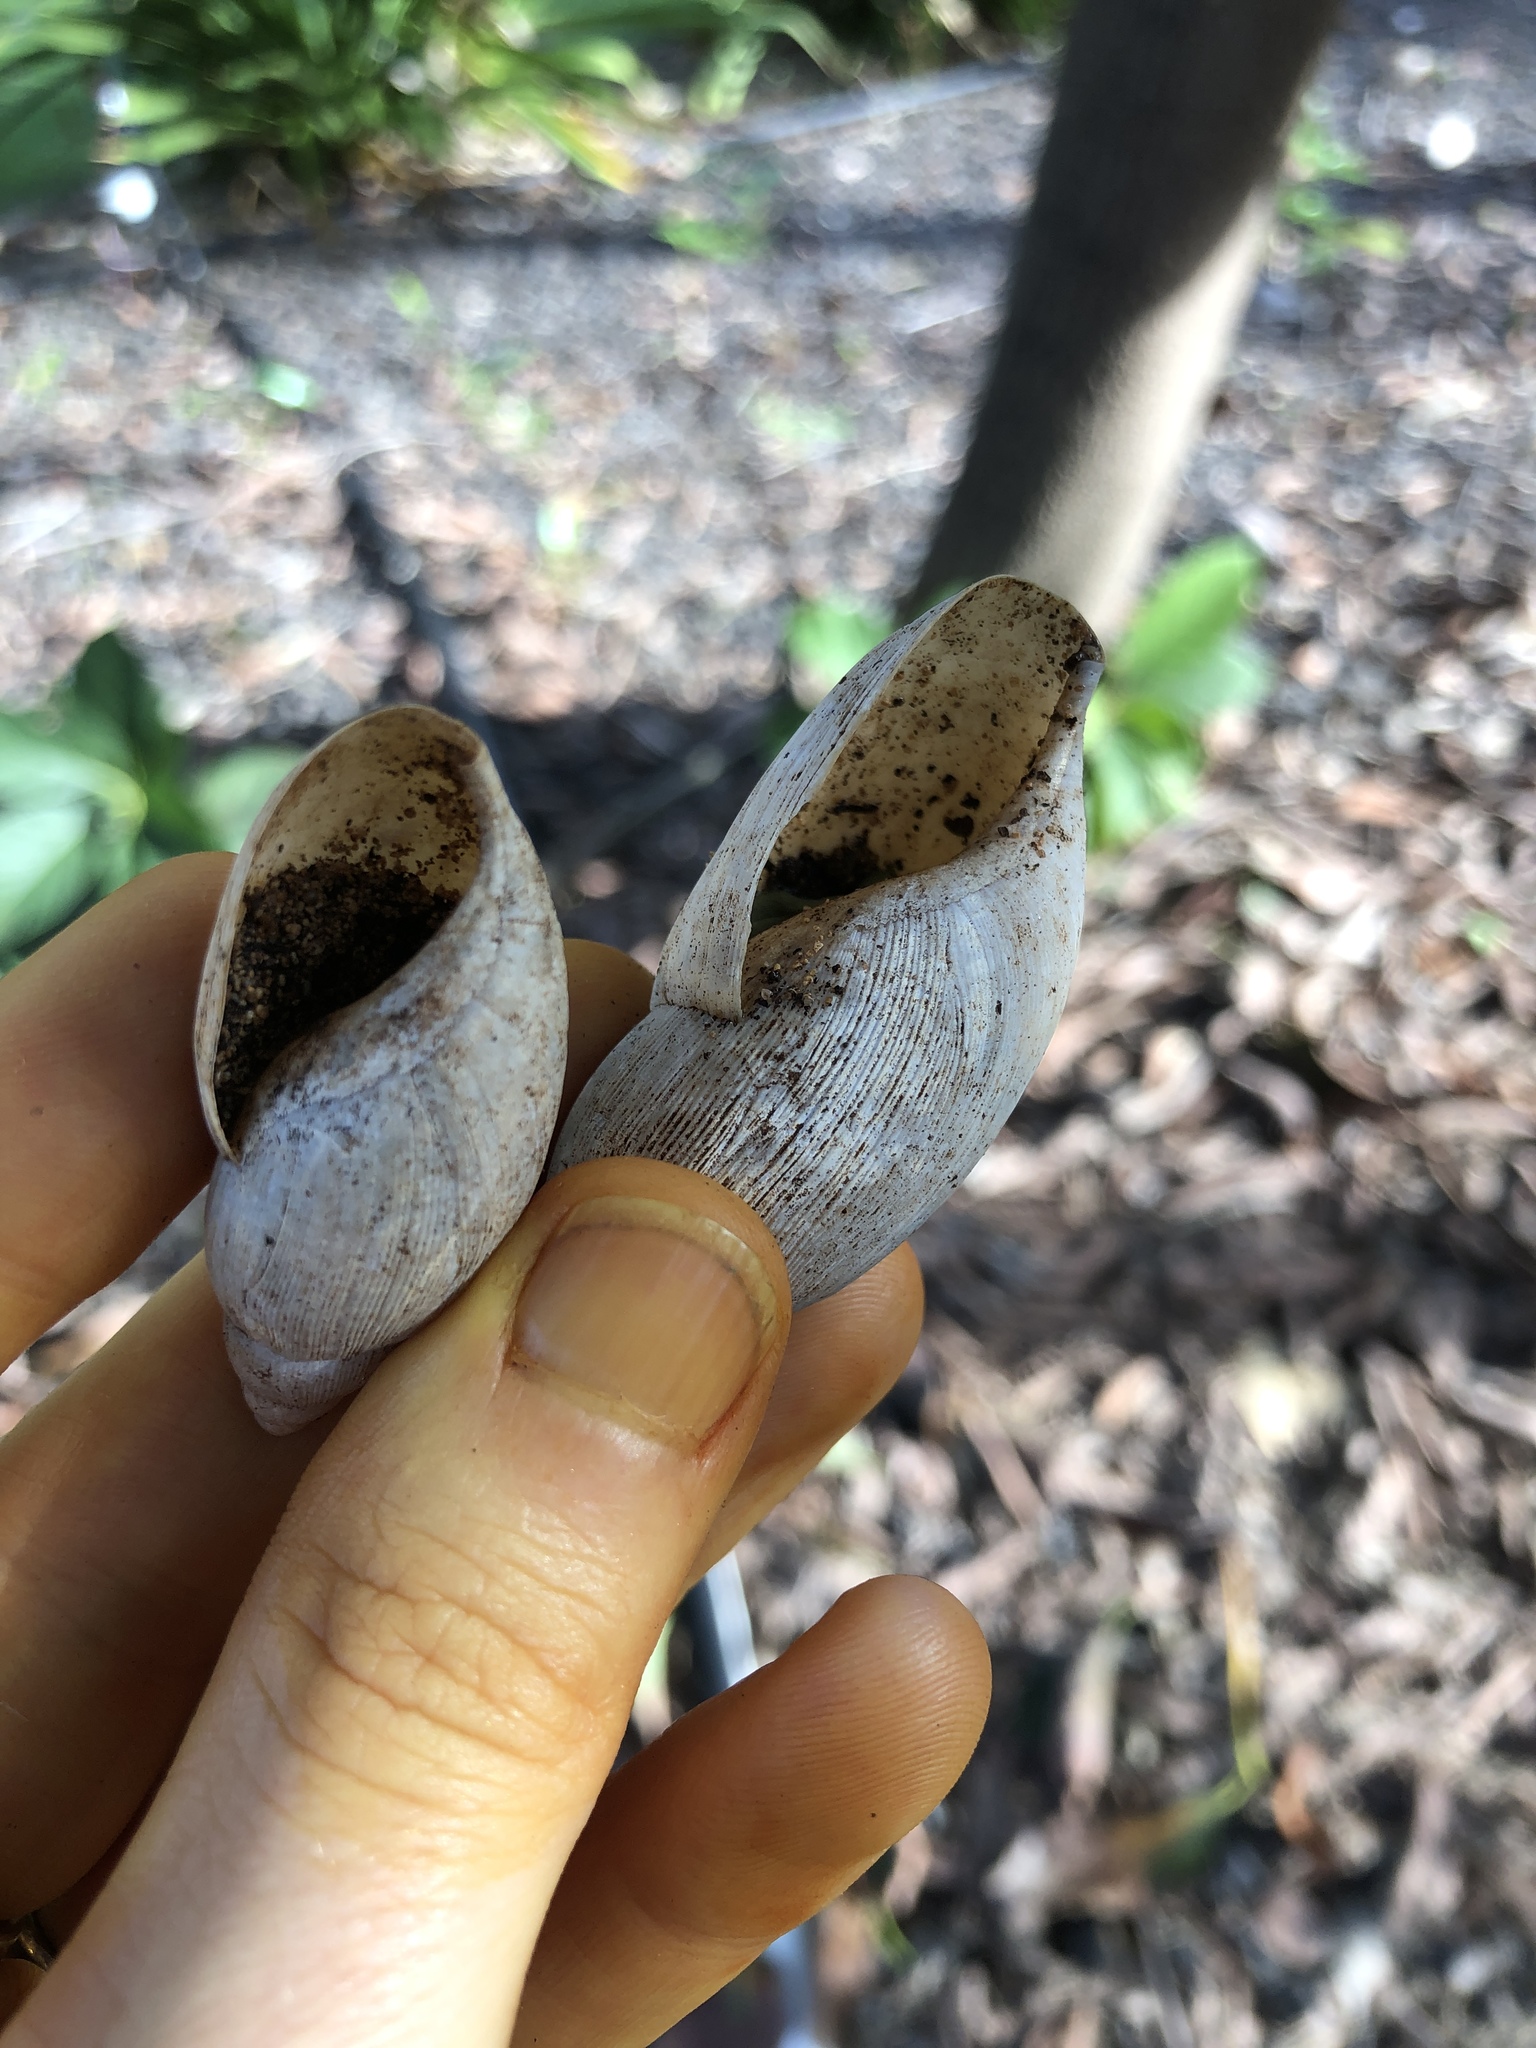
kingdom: Animalia
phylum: Mollusca
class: Gastropoda
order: Stylommatophora
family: Spiraxidae
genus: Euglandina
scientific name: Euglandina rosea
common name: Rosy wolfsnail
